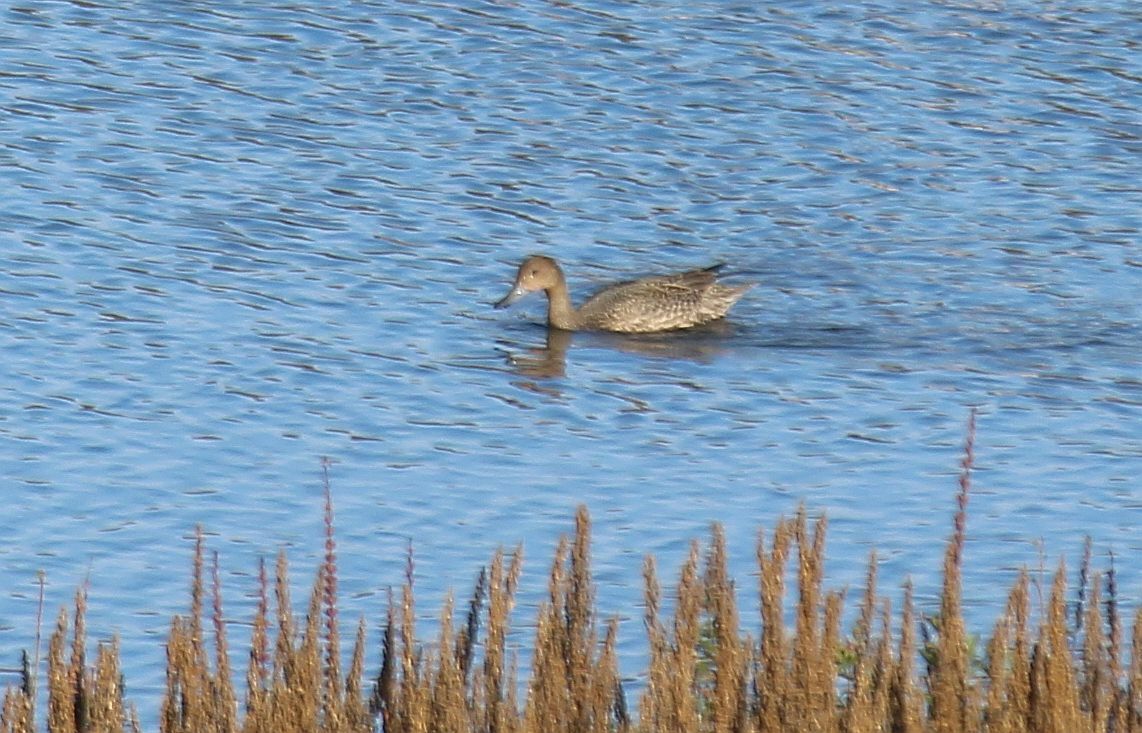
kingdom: Animalia
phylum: Chordata
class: Aves
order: Anseriformes
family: Anatidae
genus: Anas
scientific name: Anas acuta
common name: Northern pintail
